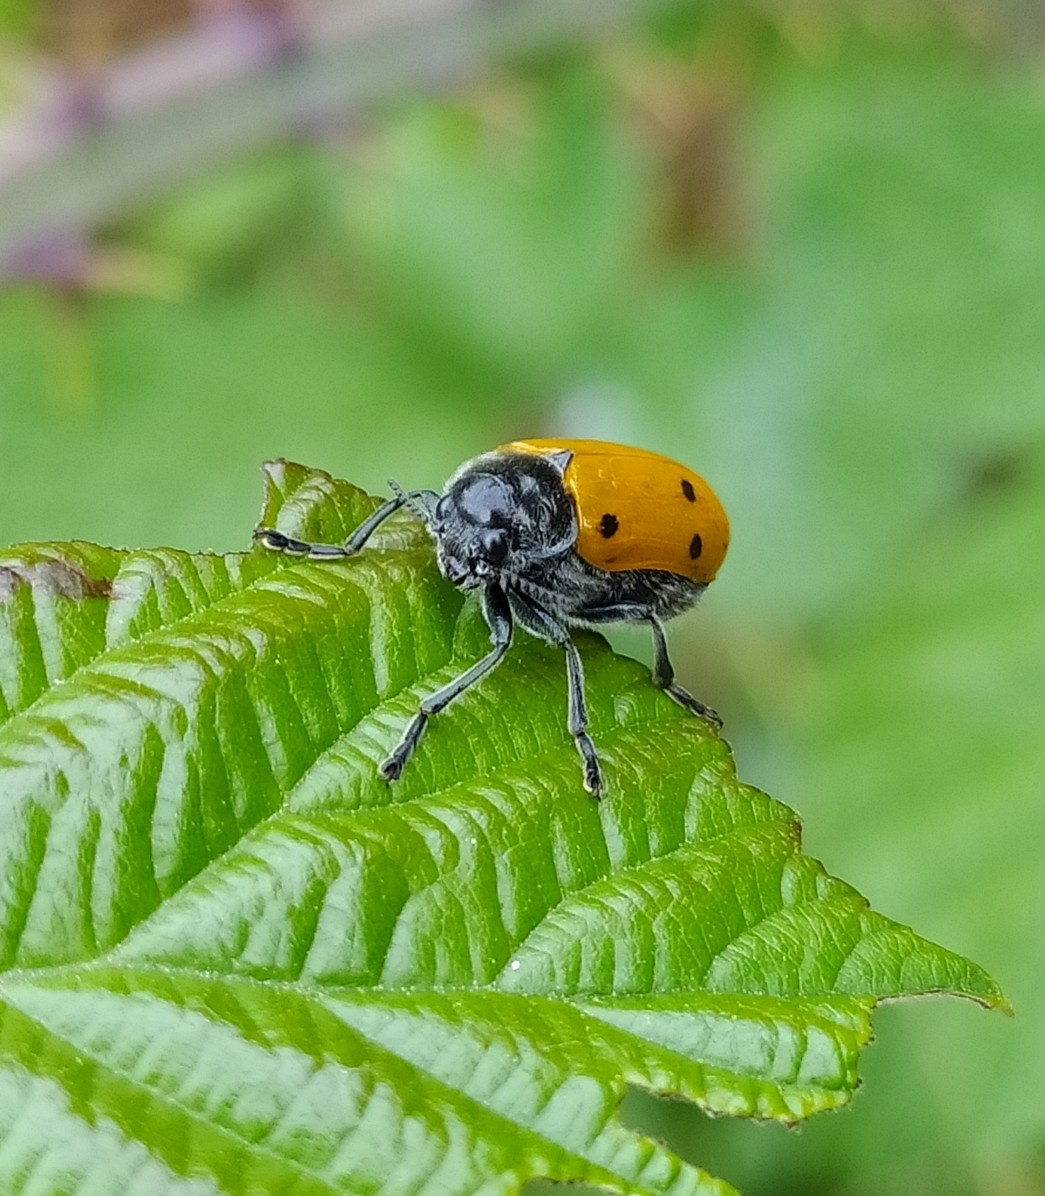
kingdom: Animalia
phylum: Arthropoda
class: Insecta
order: Coleoptera
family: Chrysomelidae
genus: Lachnaia
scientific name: Lachnaia italica
